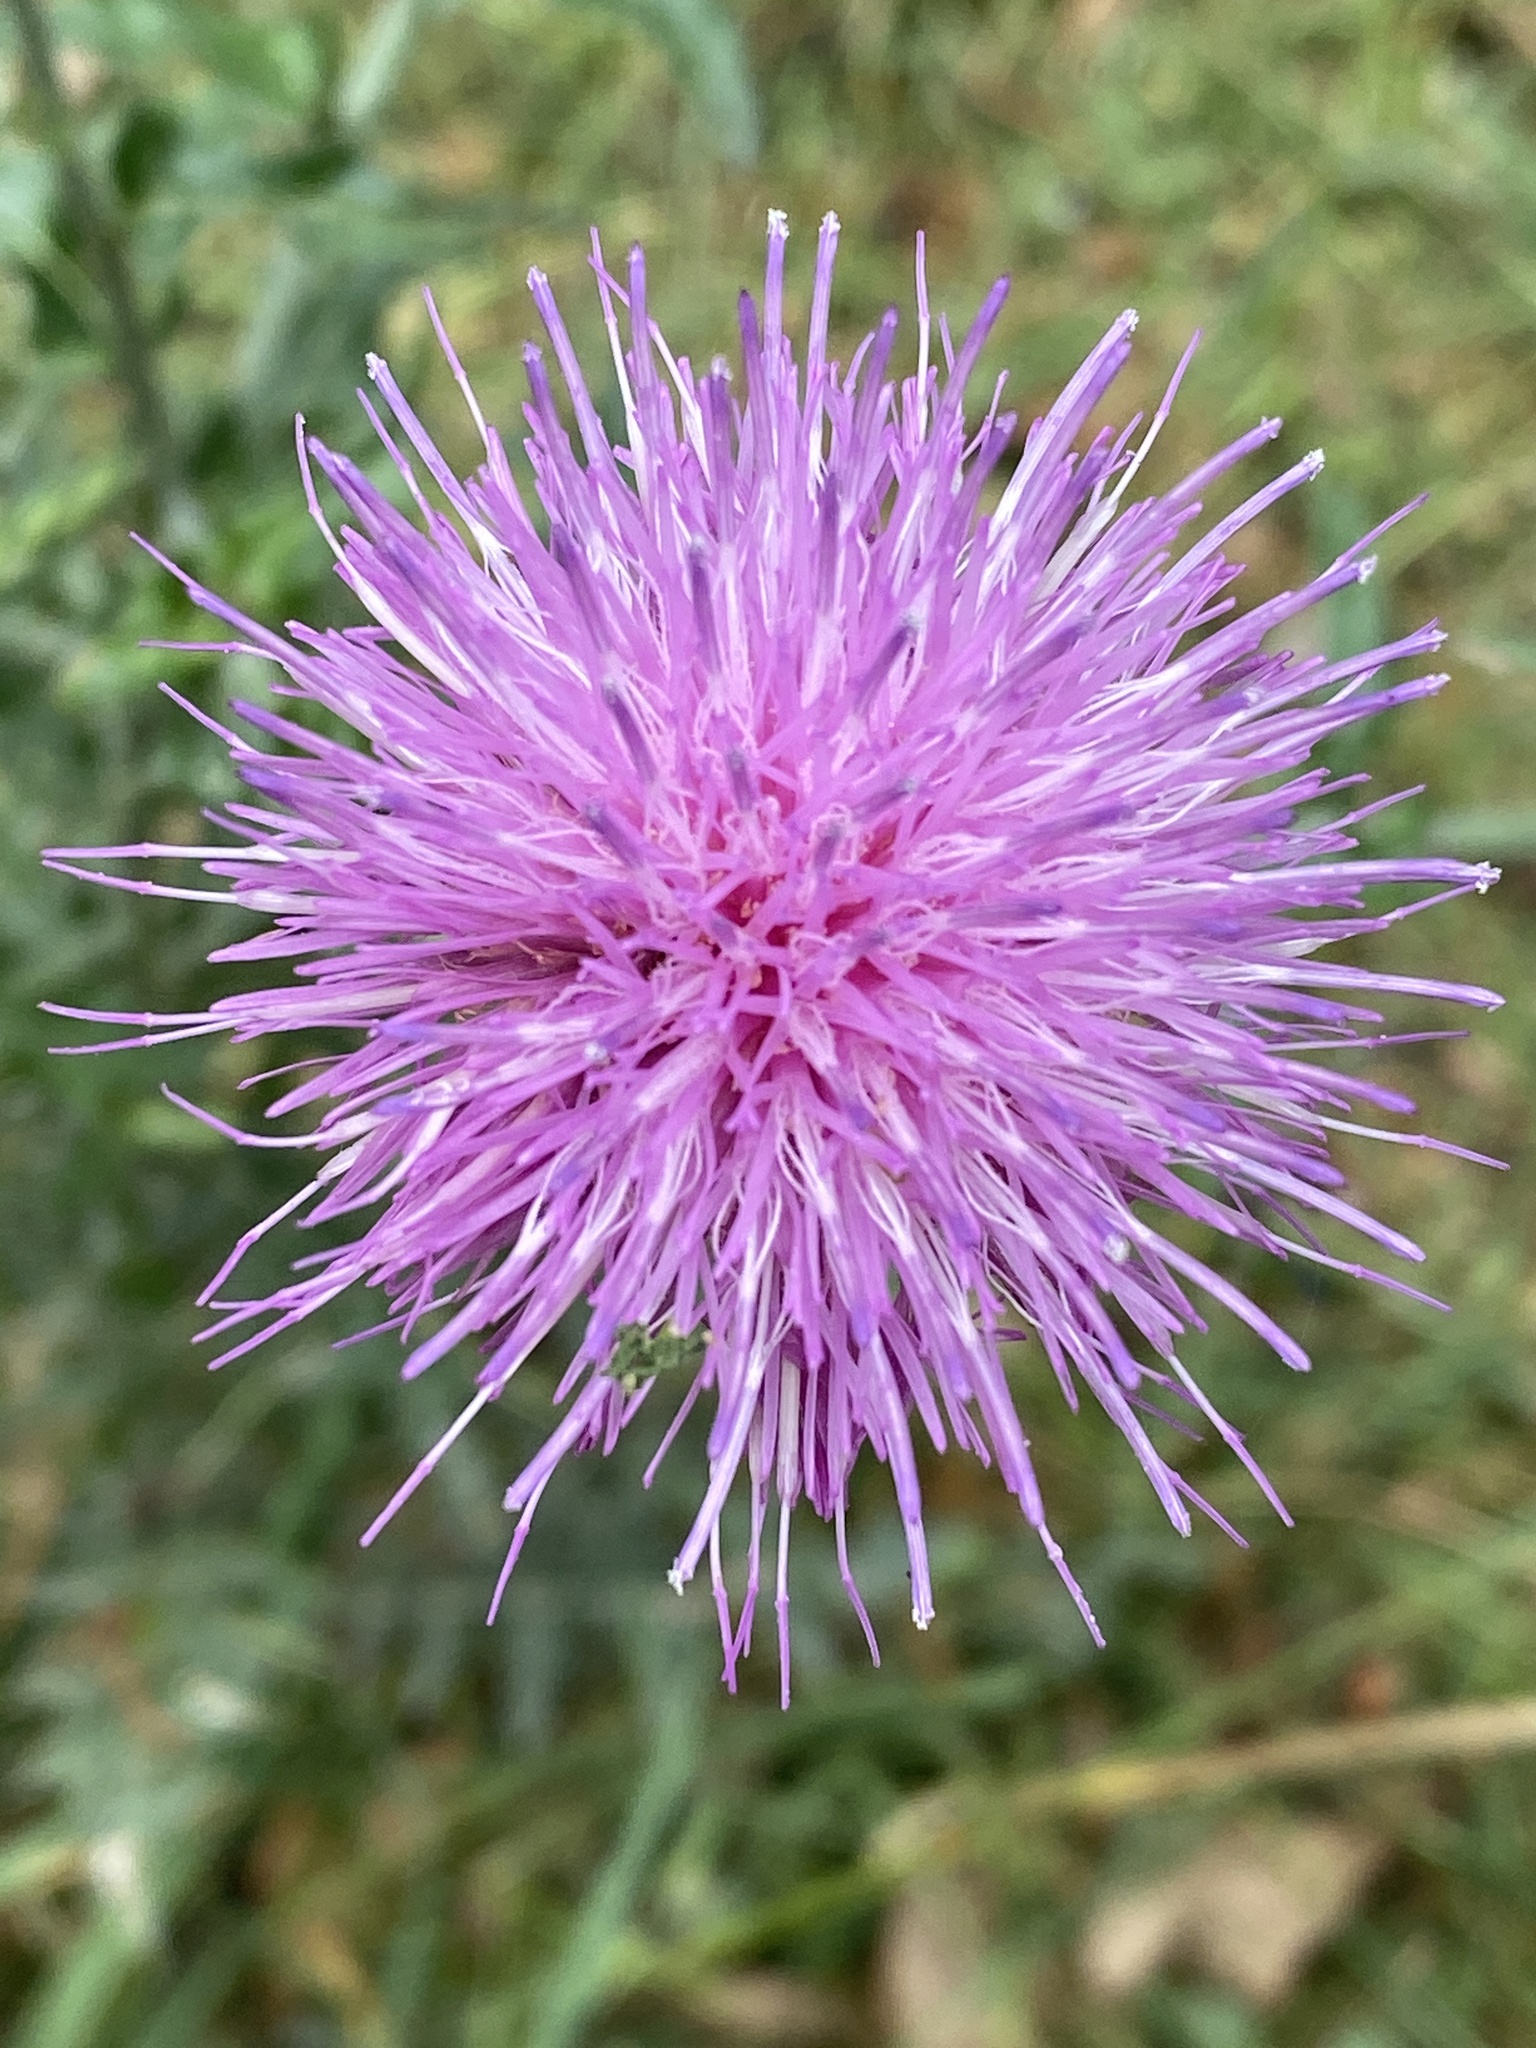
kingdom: Plantae
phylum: Tracheophyta
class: Magnoliopsida
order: Asterales
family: Asteraceae
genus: Cirsium
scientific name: Cirsium texanum
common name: Texas purple thistle
